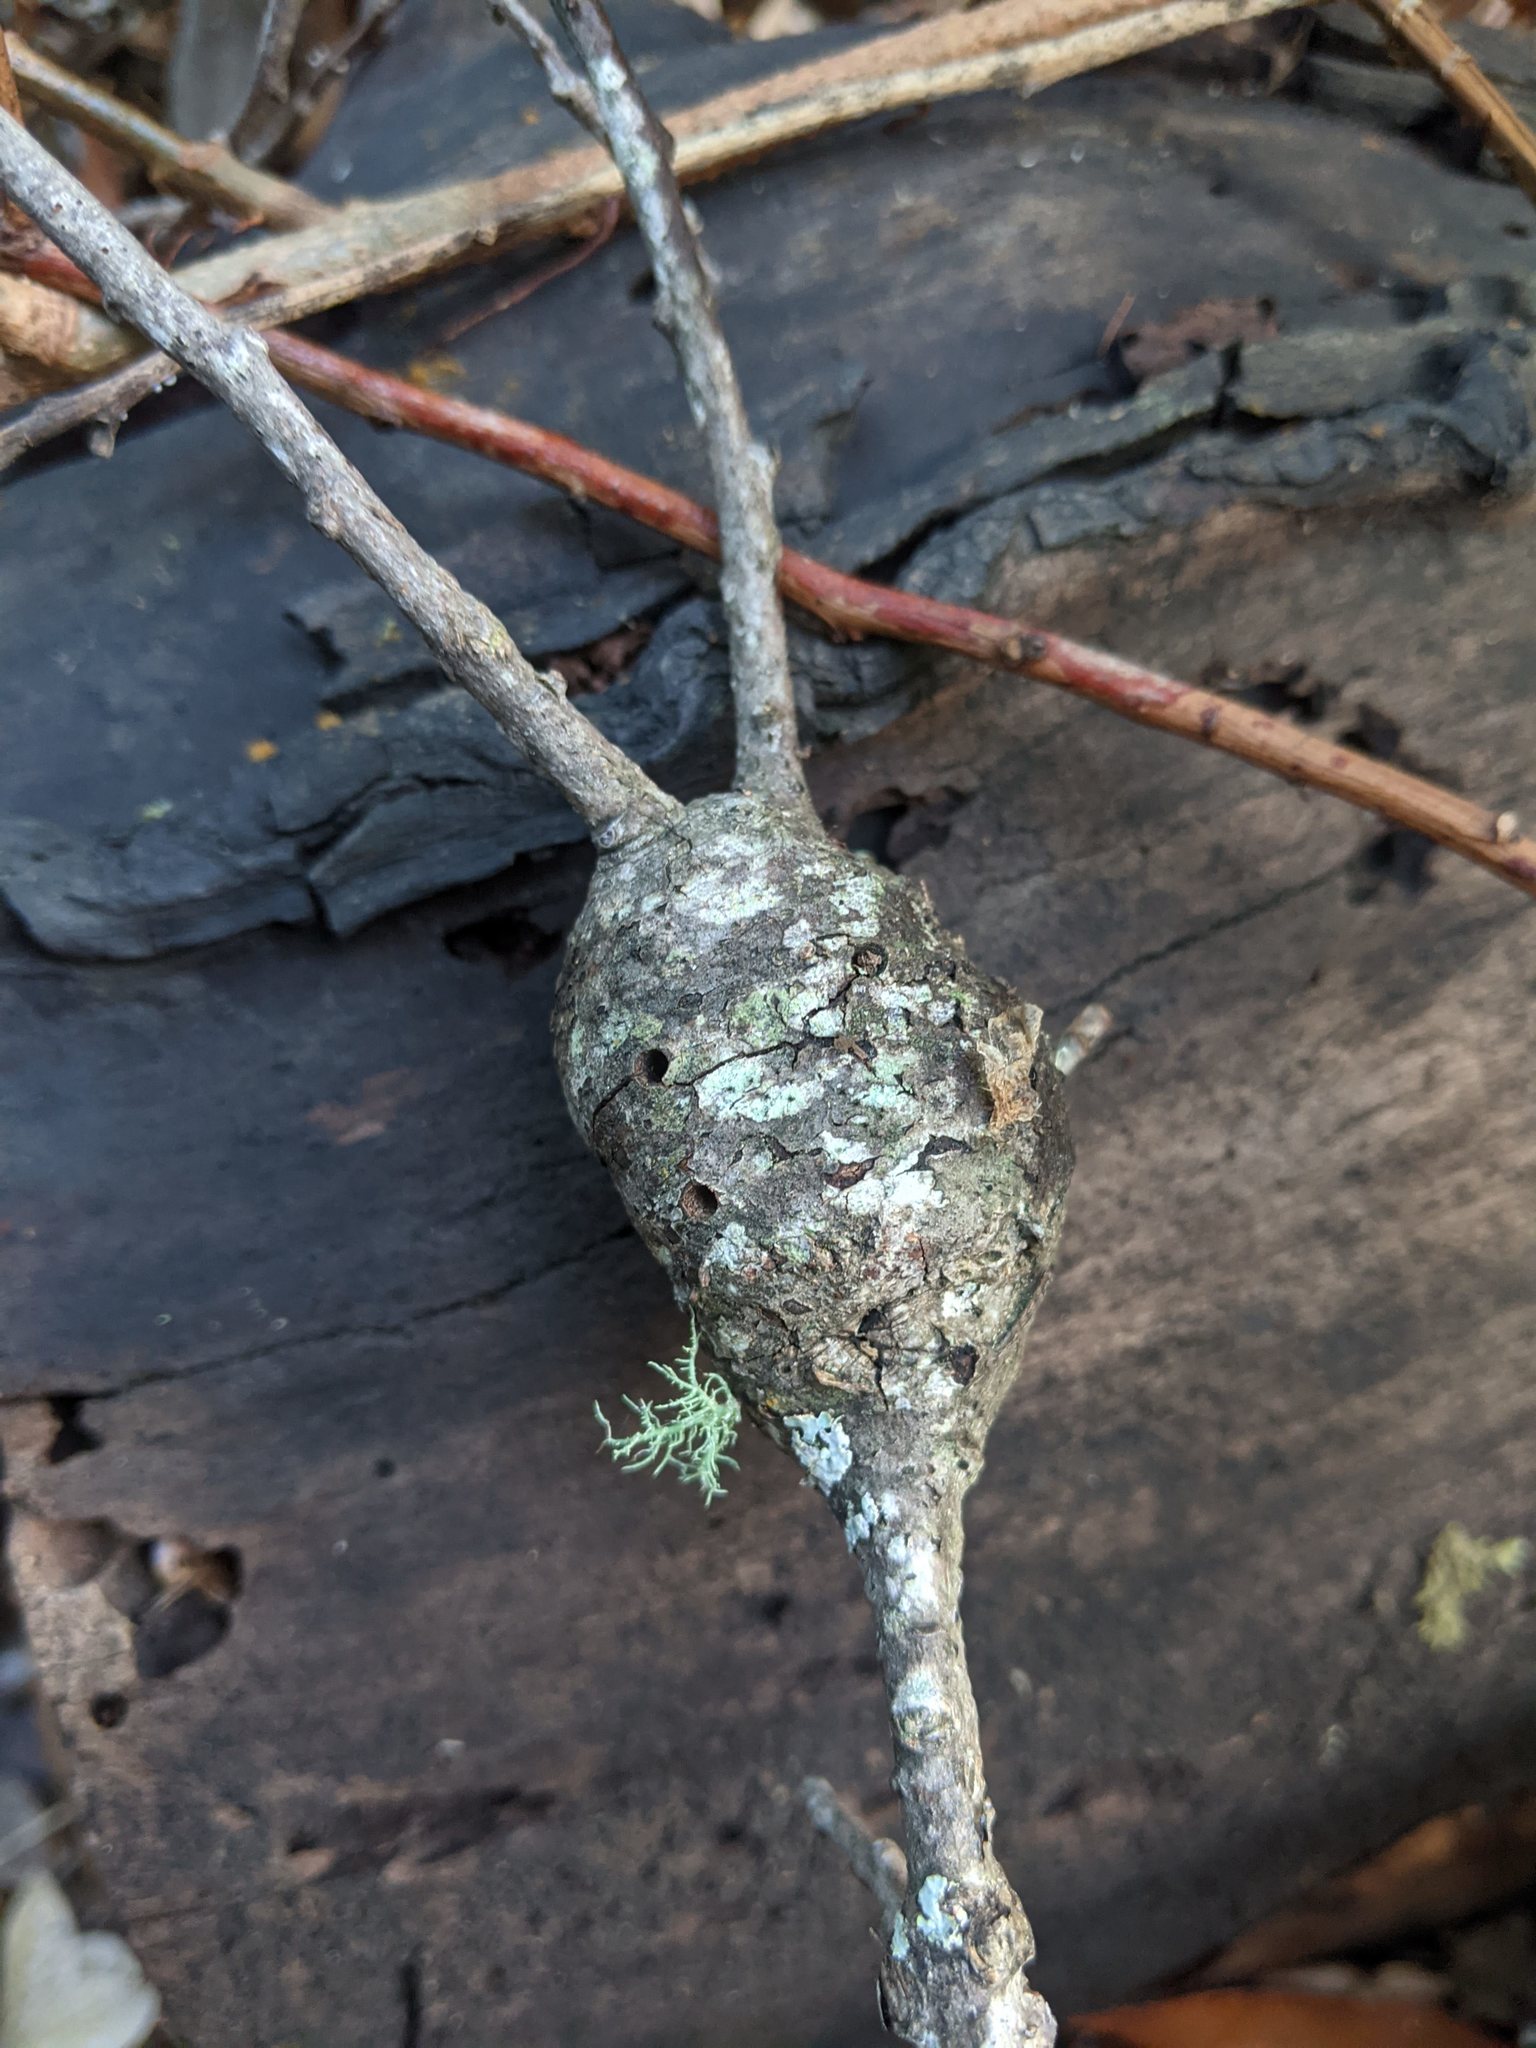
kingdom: Animalia
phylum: Arthropoda
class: Insecta
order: Hymenoptera
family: Cynipidae
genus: Callirhytis
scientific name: Callirhytis
